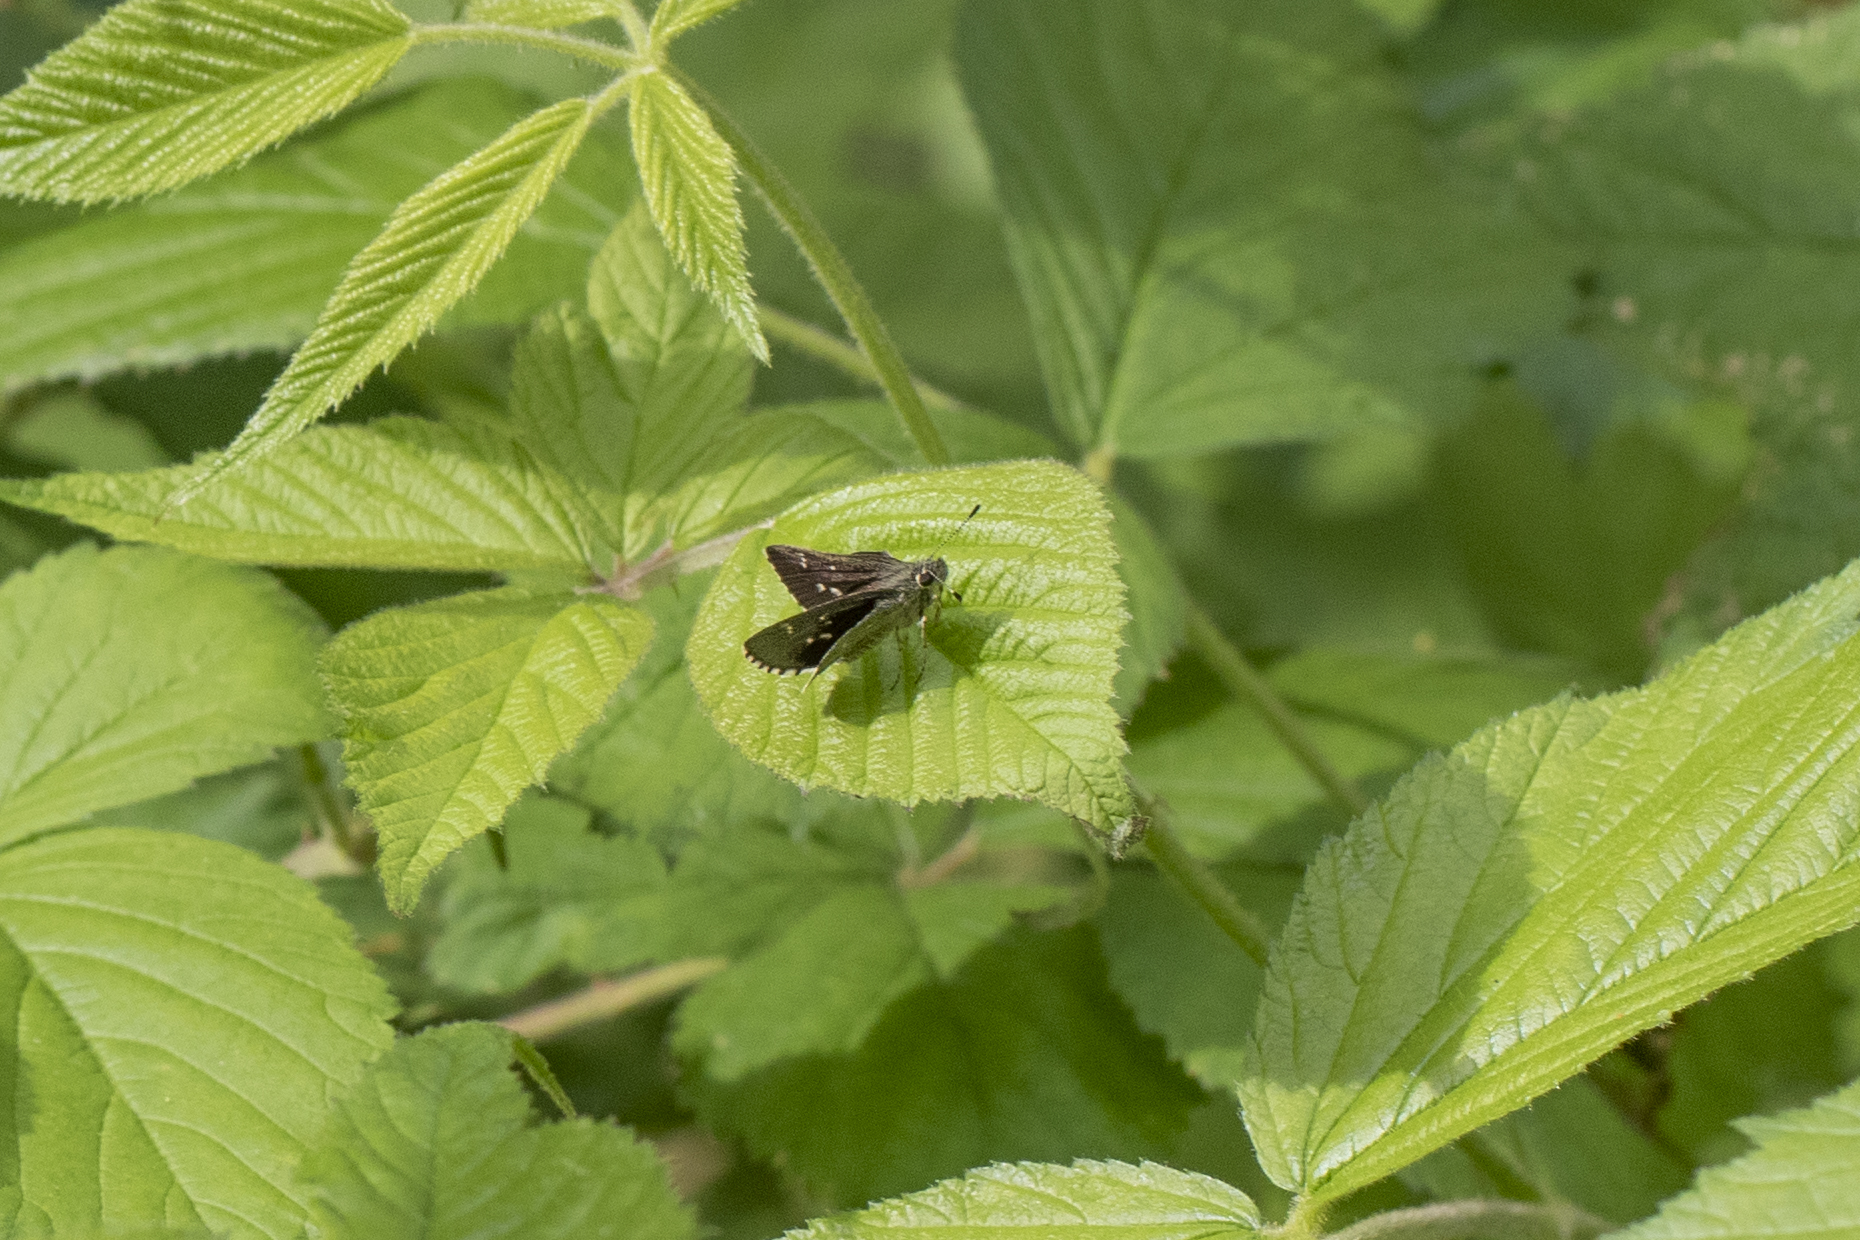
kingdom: Animalia
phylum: Arthropoda
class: Insecta
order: Lepidoptera
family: Hesperiidae
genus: Mastor
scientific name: Mastor hegon
